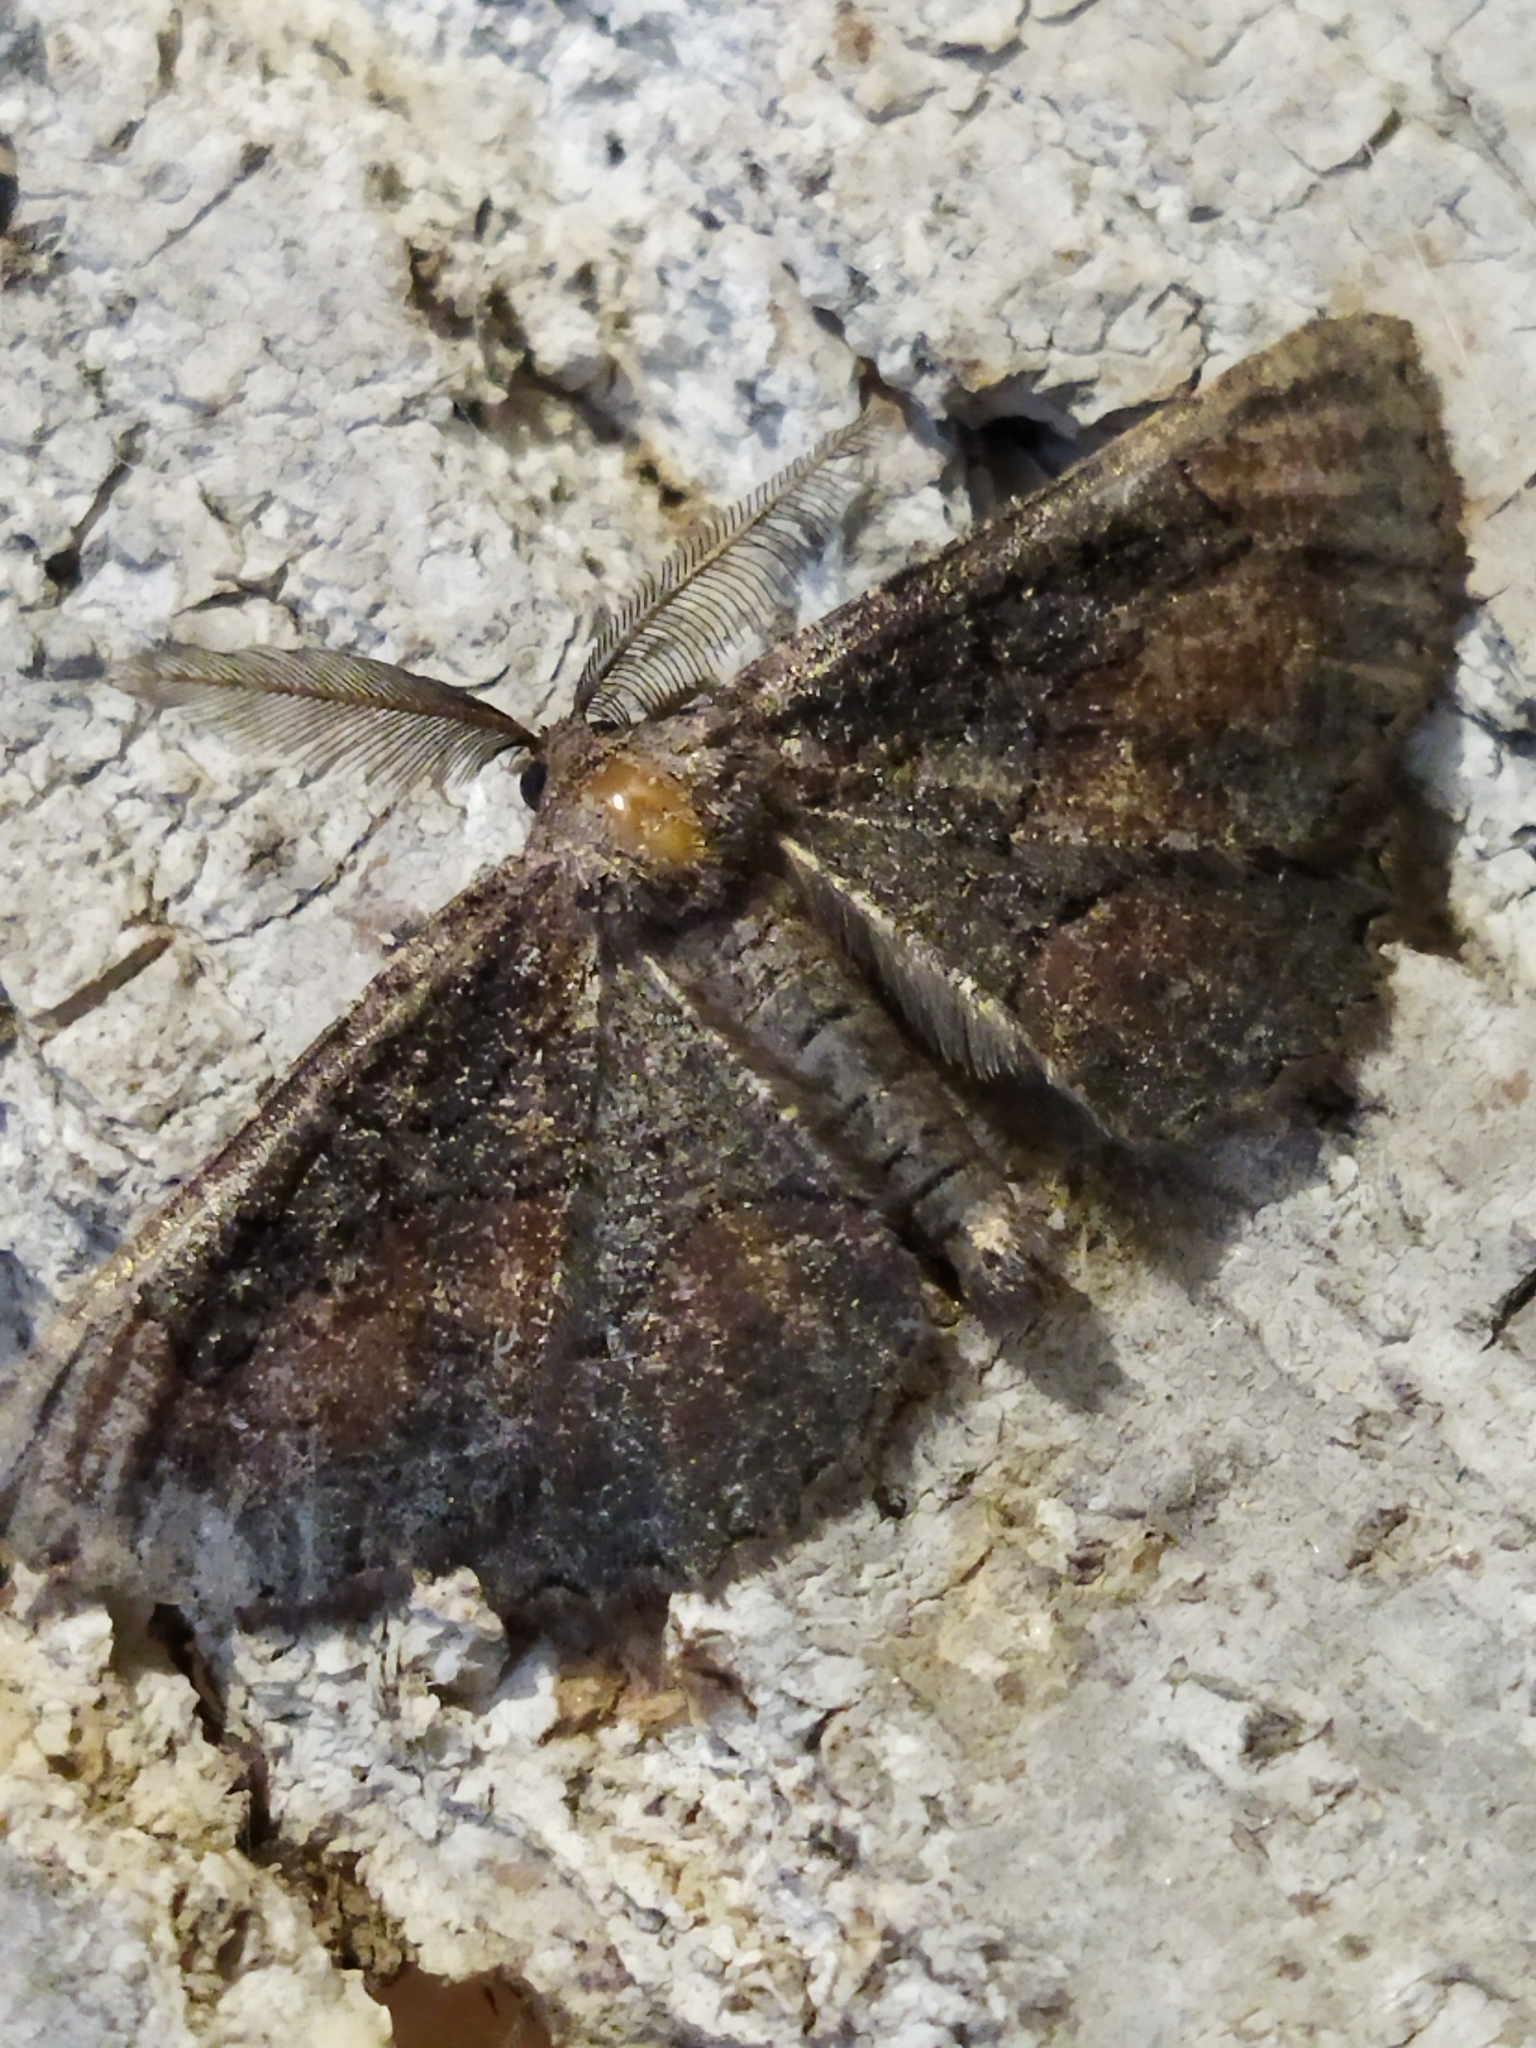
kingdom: Animalia
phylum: Arthropoda
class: Insecta
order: Lepidoptera
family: Geometridae
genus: Nychiodes
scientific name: Nychiodes waltheri
